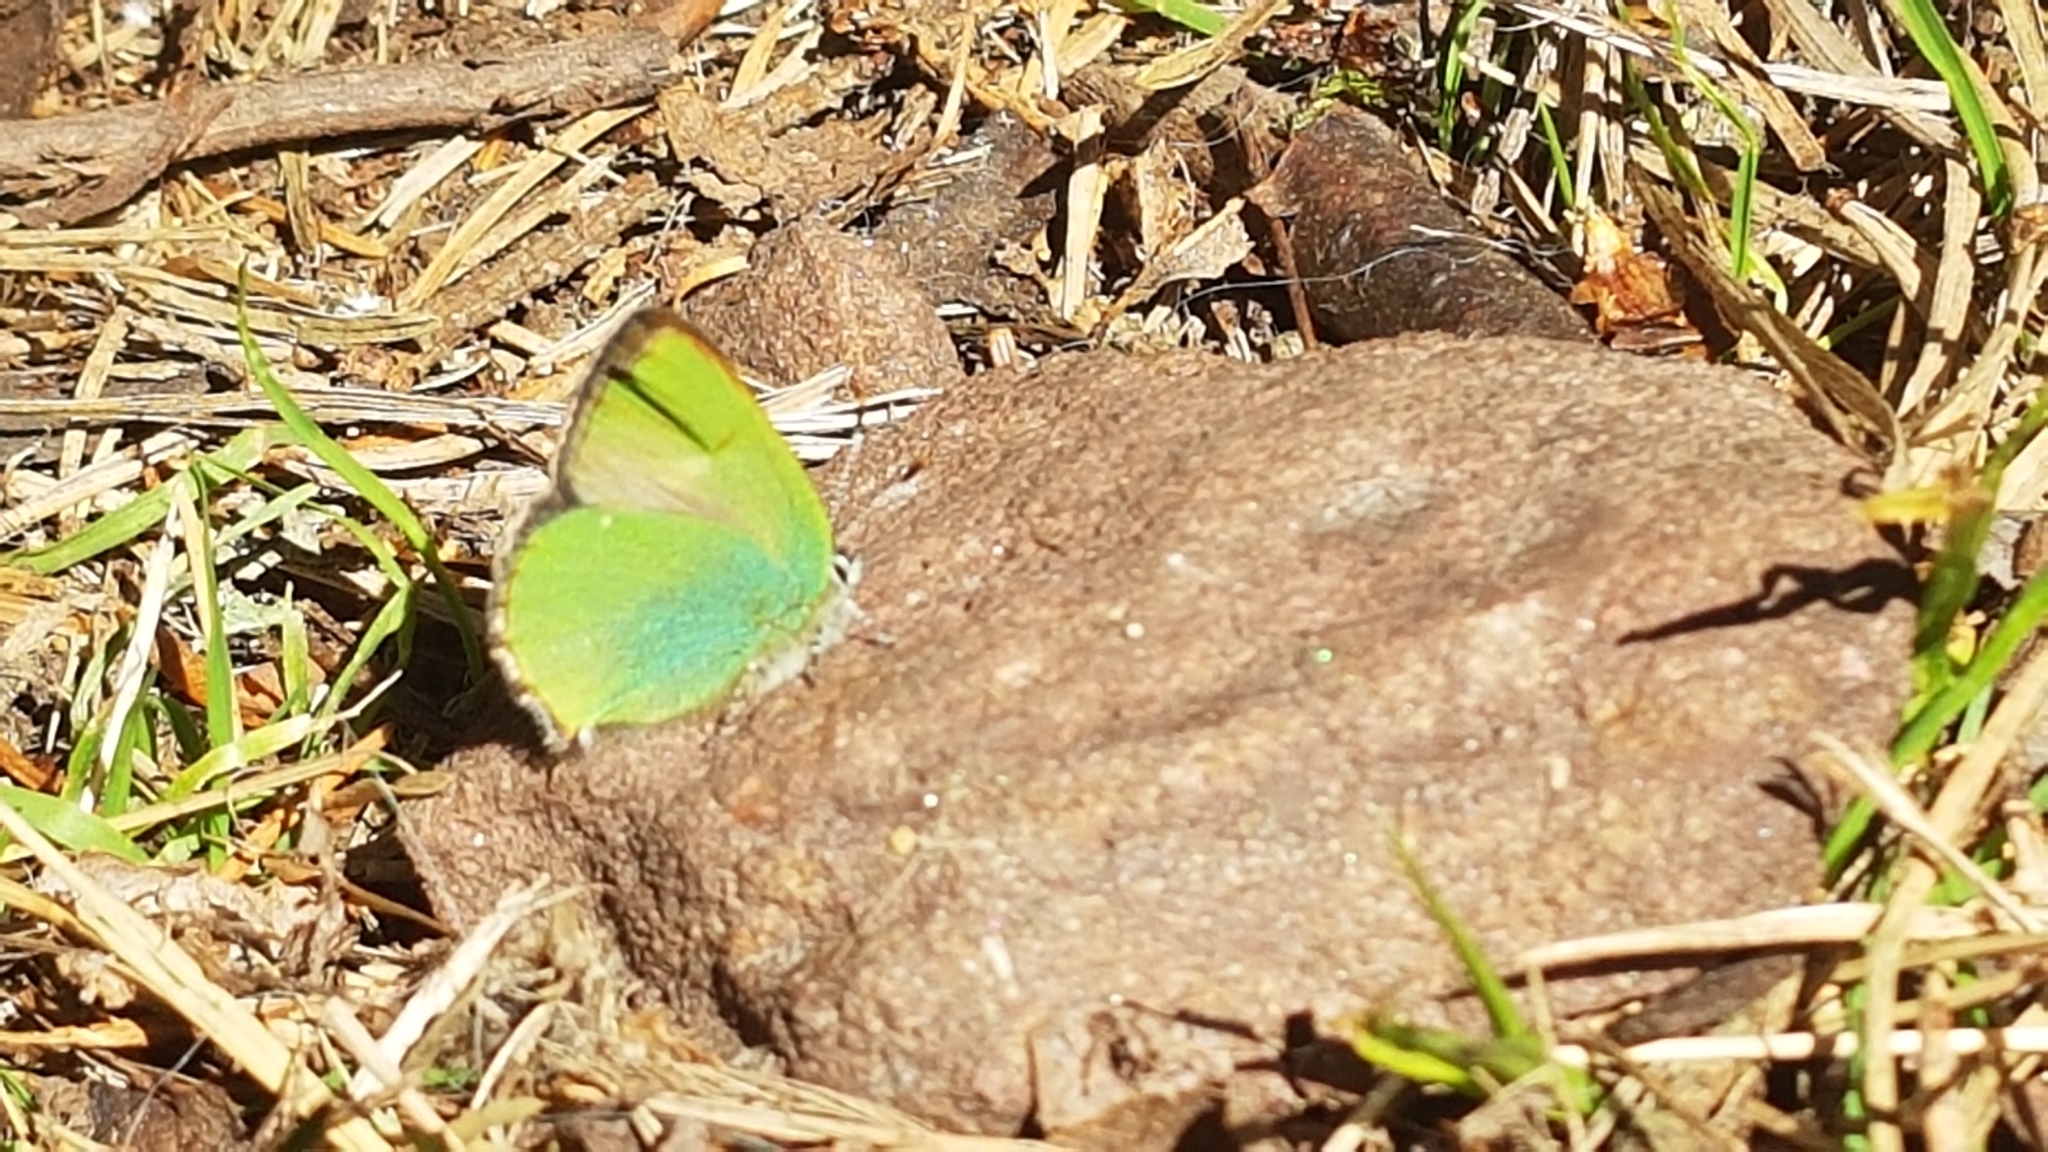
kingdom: Animalia
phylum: Arthropoda
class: Insecta
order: Lepidoptera
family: Lycaenidae
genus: Callophrys
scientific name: Callophrys rubi
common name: Green hairstreak
